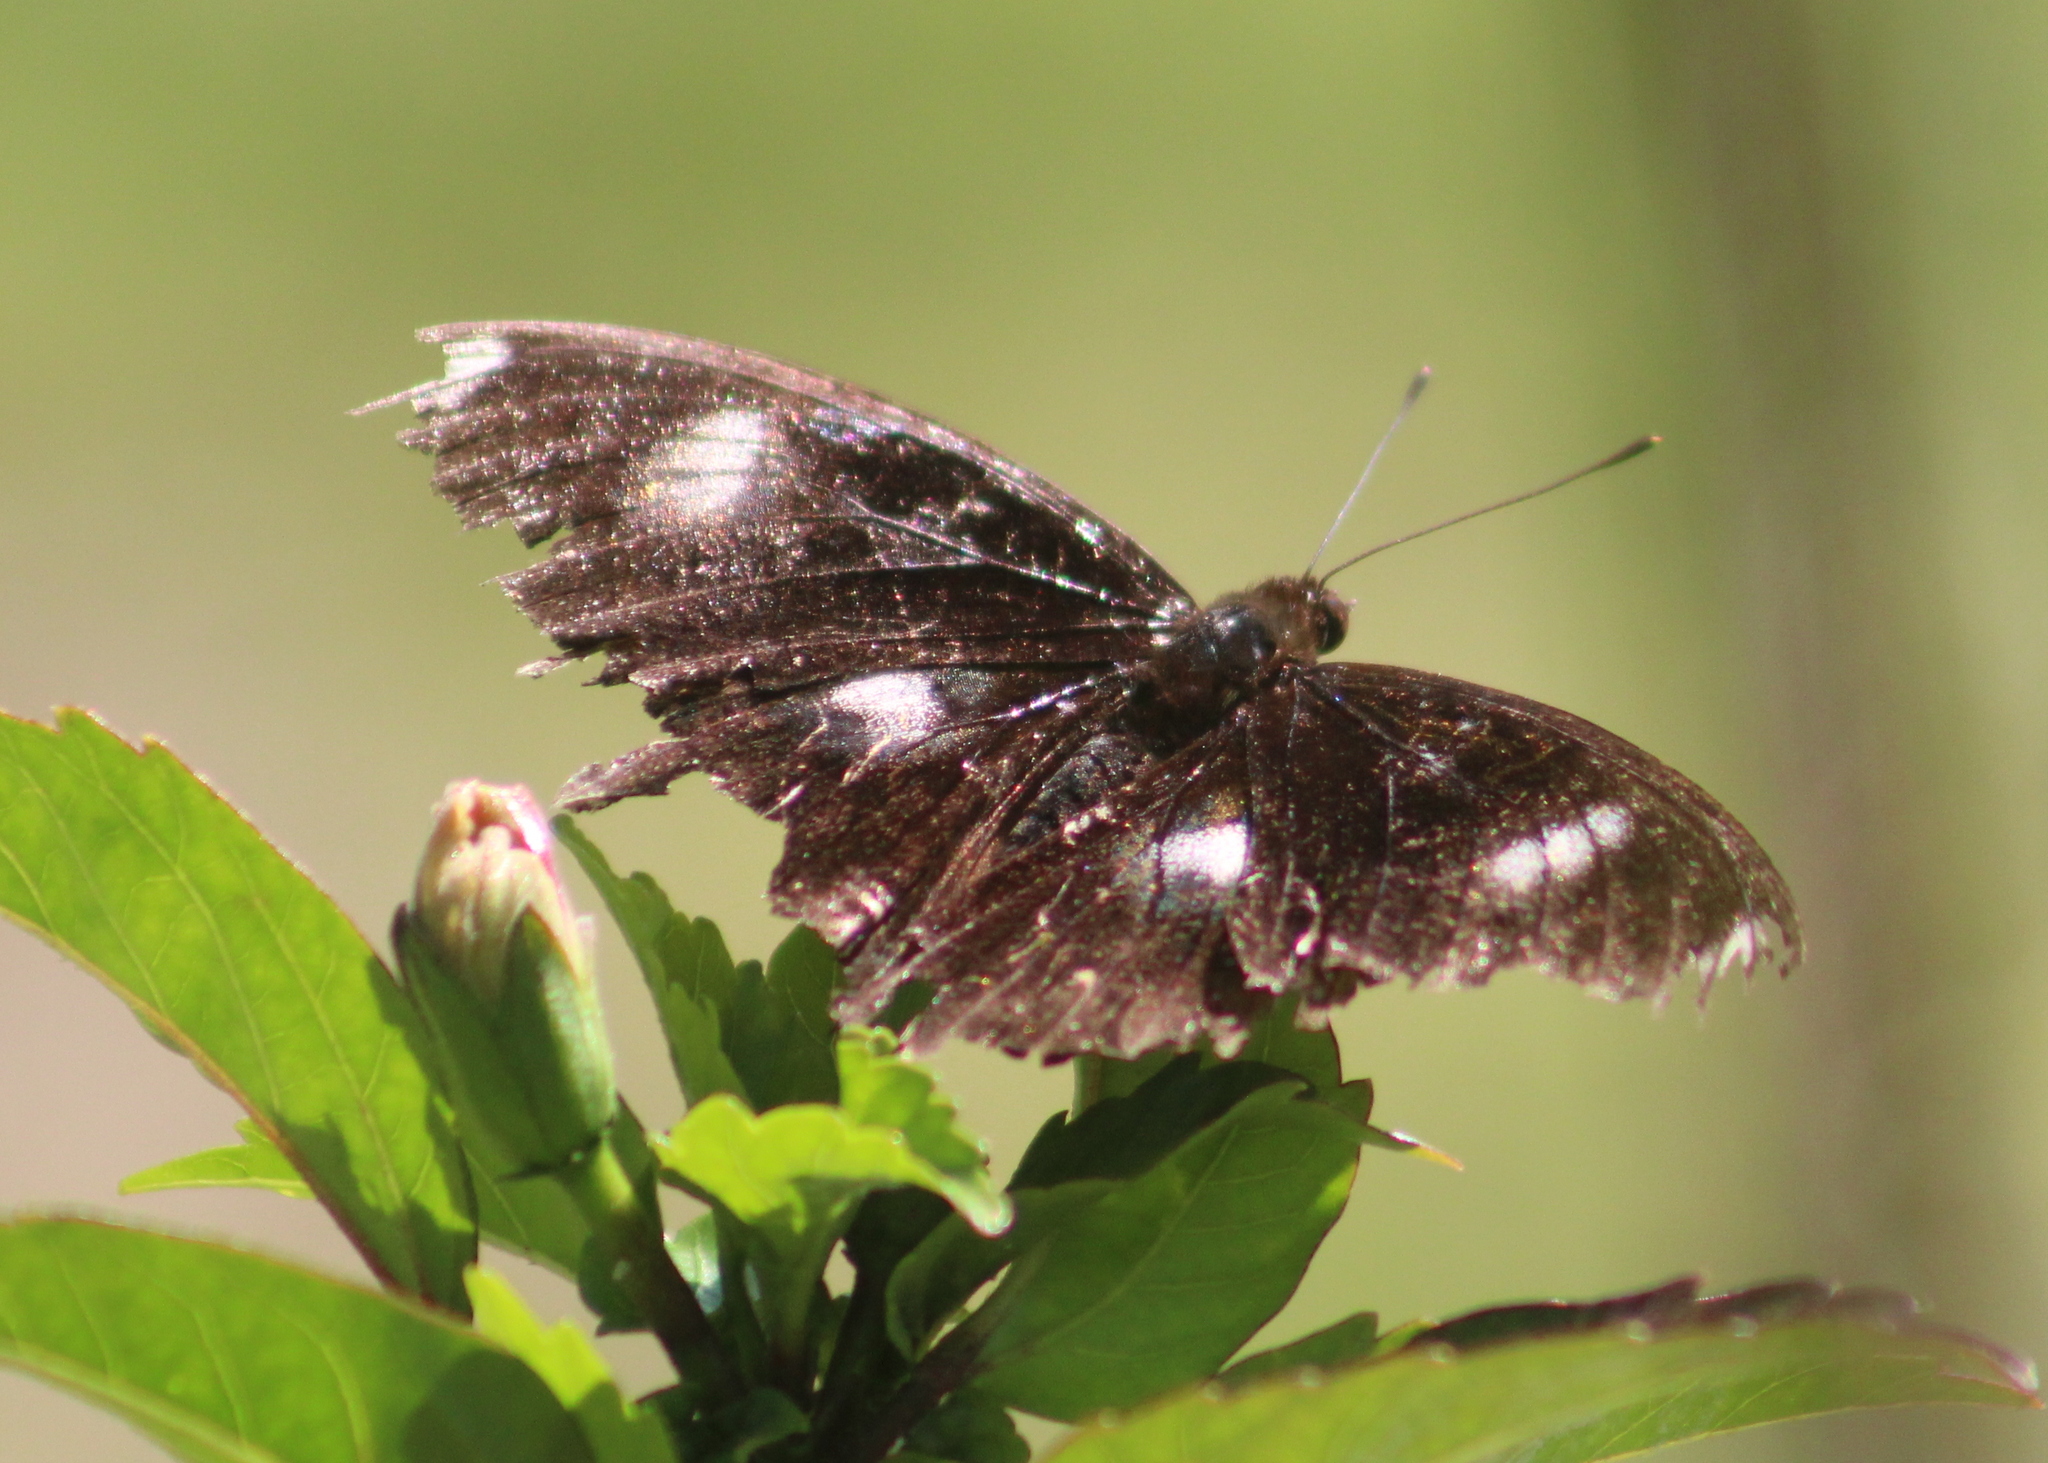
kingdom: Animalia
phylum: Arthropoda
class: Insecta
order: Lepidoptera
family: Nymphalidae
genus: Hypolimnas
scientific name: Hypolimnas bolina
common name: Great eggfly
